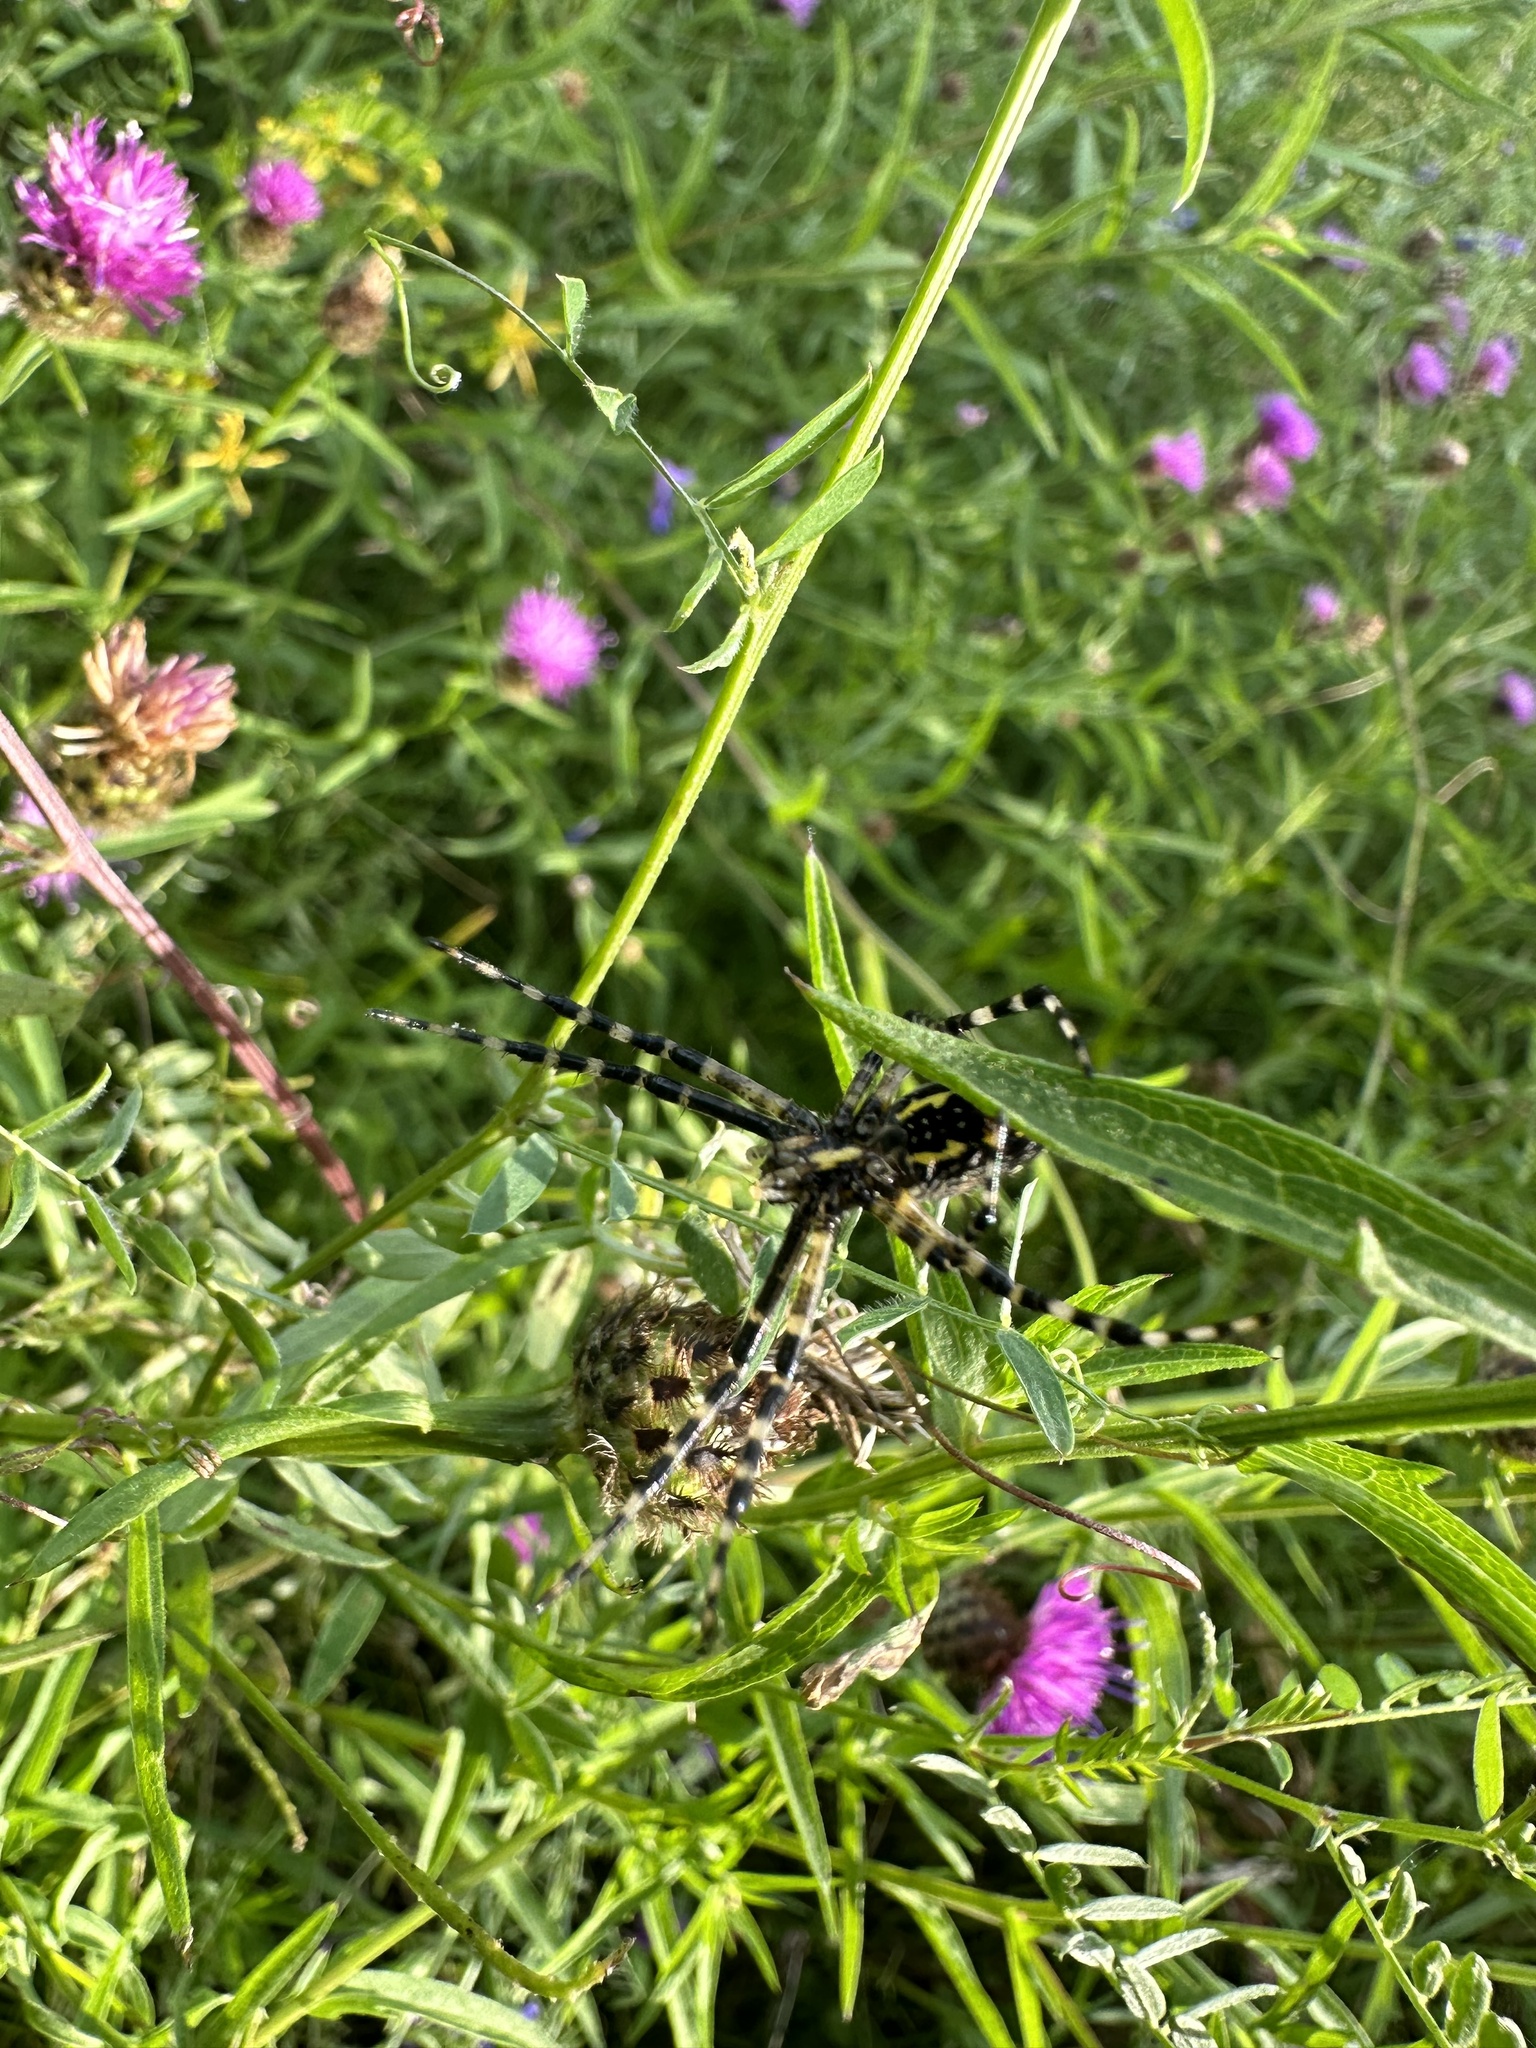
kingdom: Animalia
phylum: Arthropoda
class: Arachnida
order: Araneae
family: Araneidae
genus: Argiope
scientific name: Argiope aurantia
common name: Orb weavers
